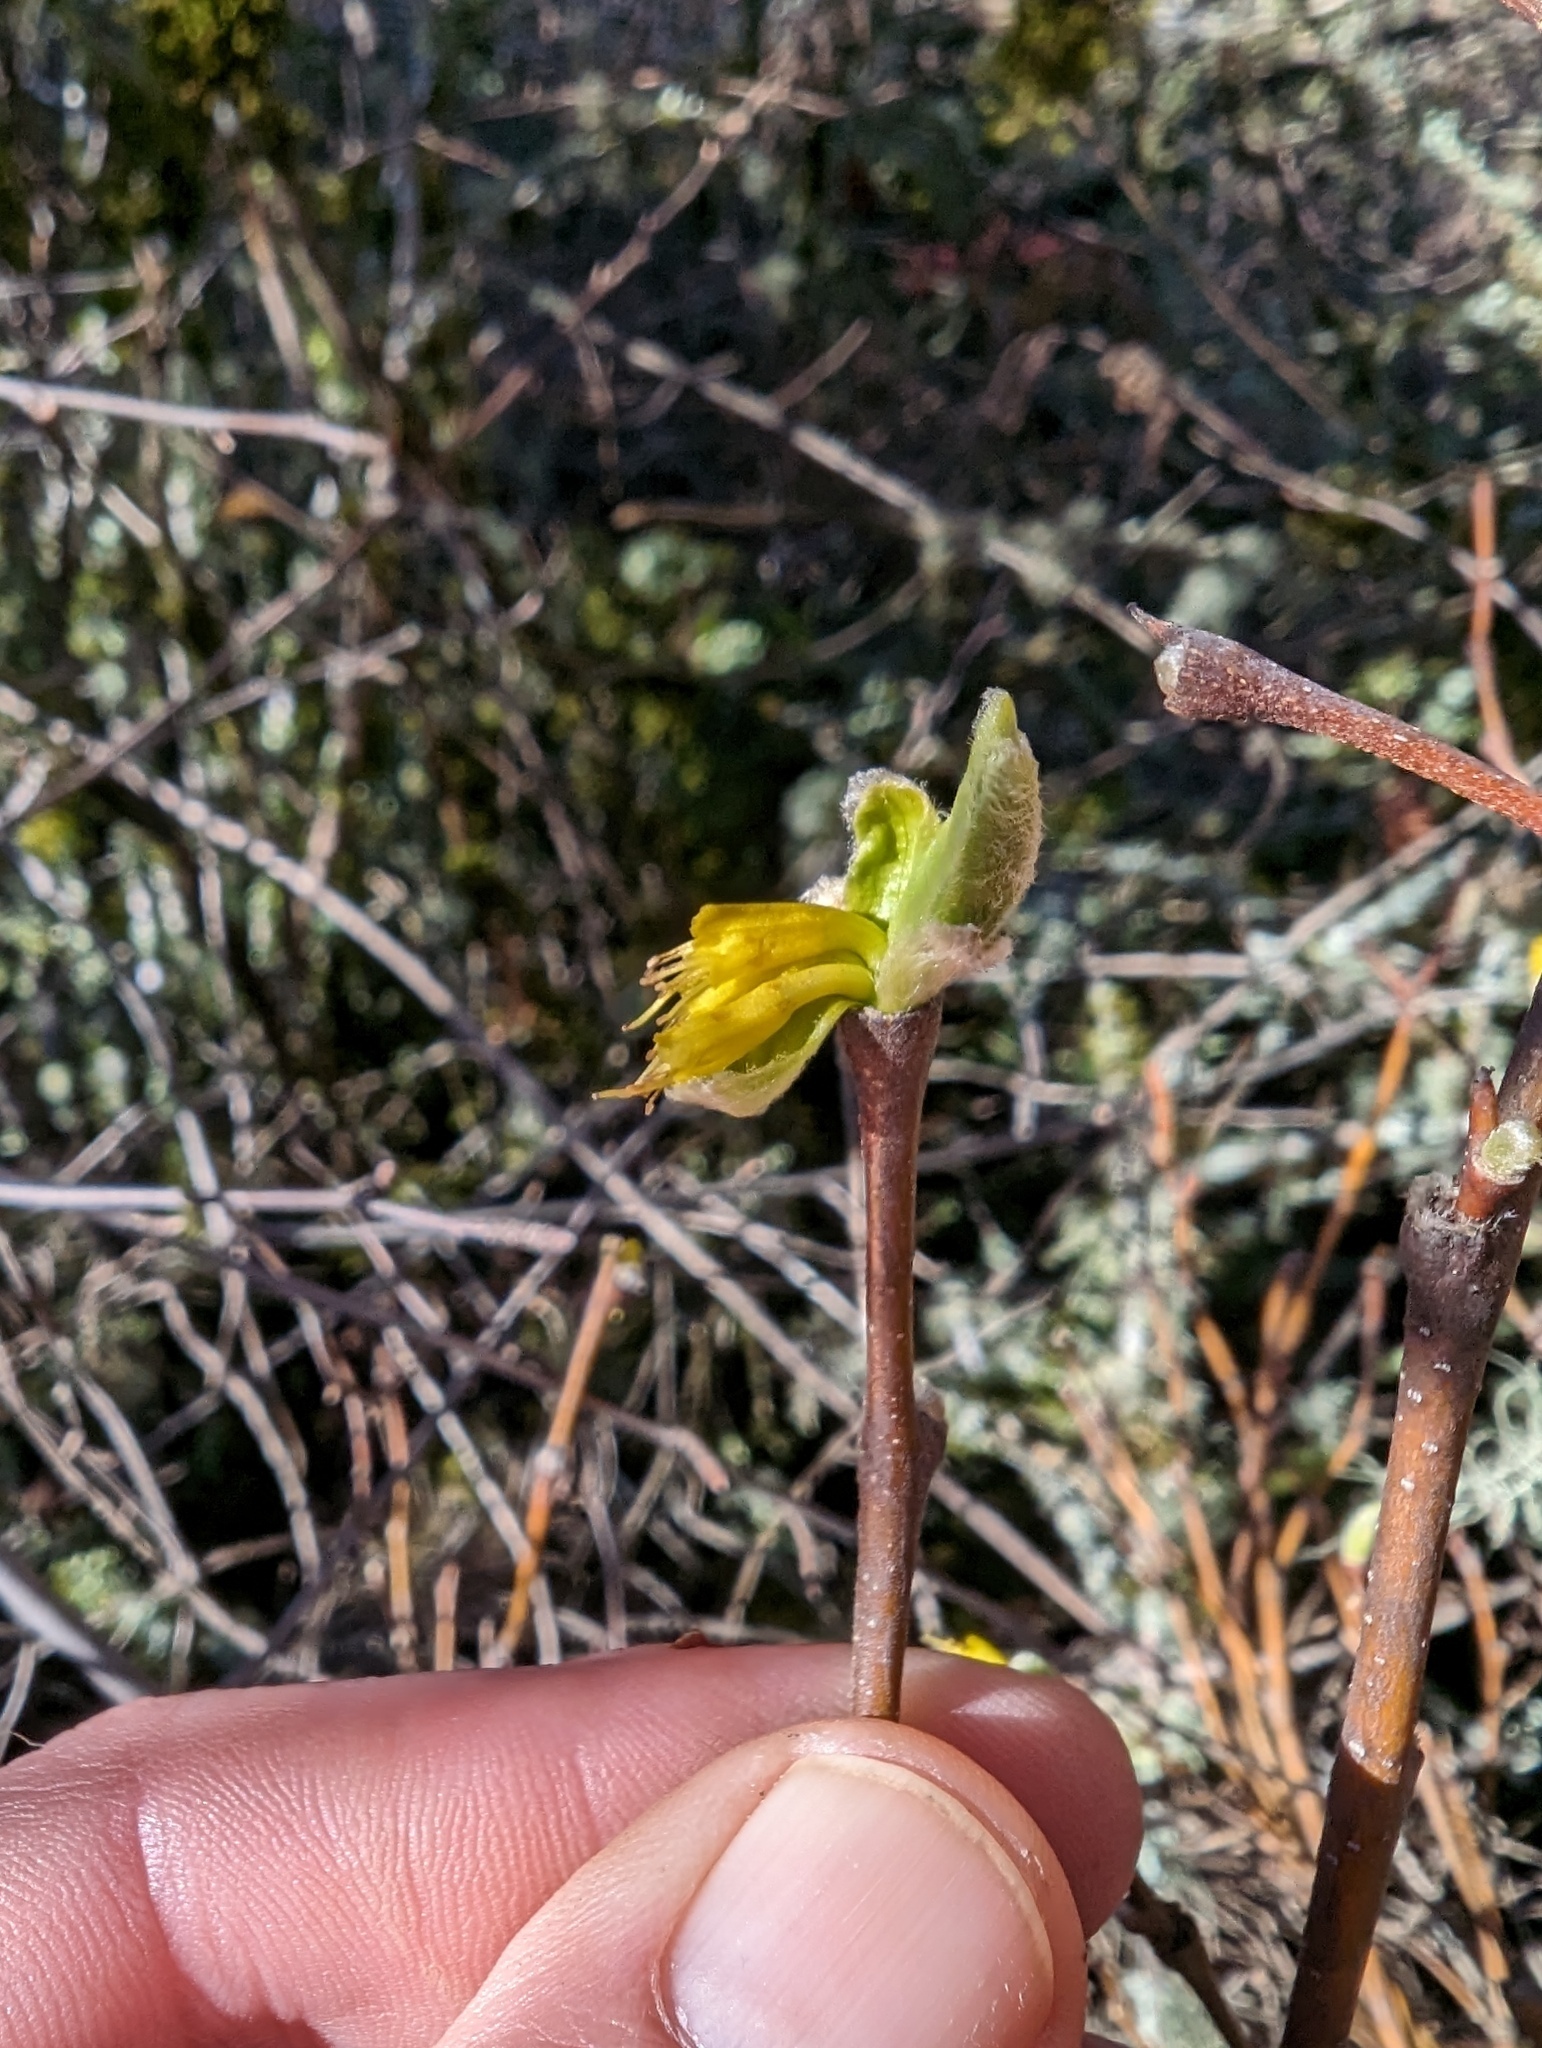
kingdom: Plantae
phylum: Tracheophyta
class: Magnoliopsida
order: Malvales
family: Thymelaeaceae
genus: Dirca
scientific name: Dirca occidentalis
